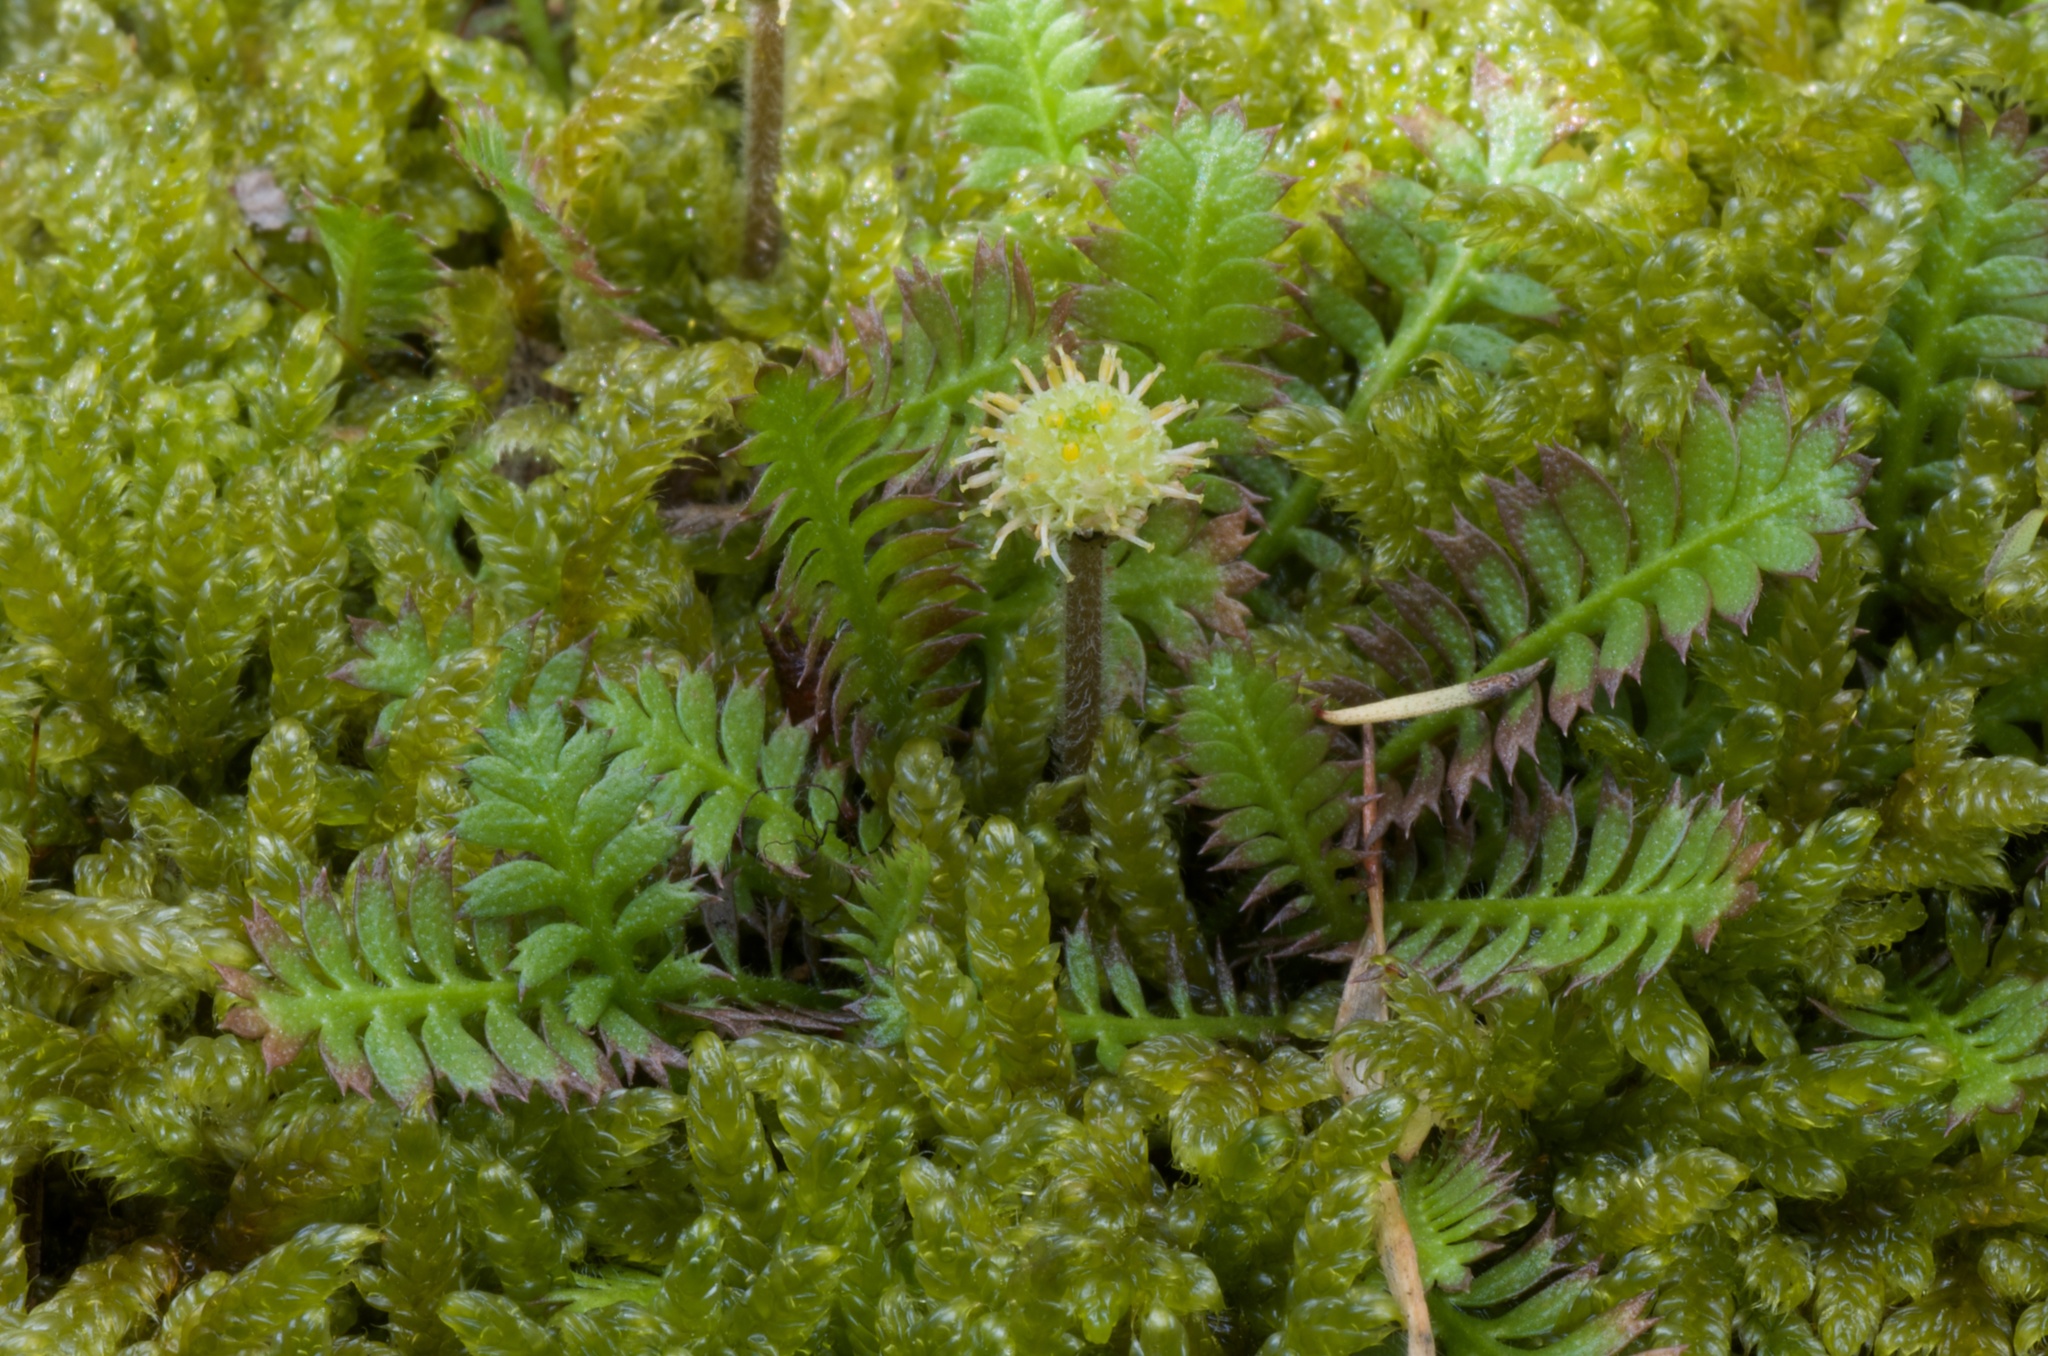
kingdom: Plantae
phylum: Tracheophyta
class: Magnoliopsida
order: Asterales
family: Asteraceae
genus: Leptinella
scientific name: Leptinella squalida
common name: New zealand brass-buttons
